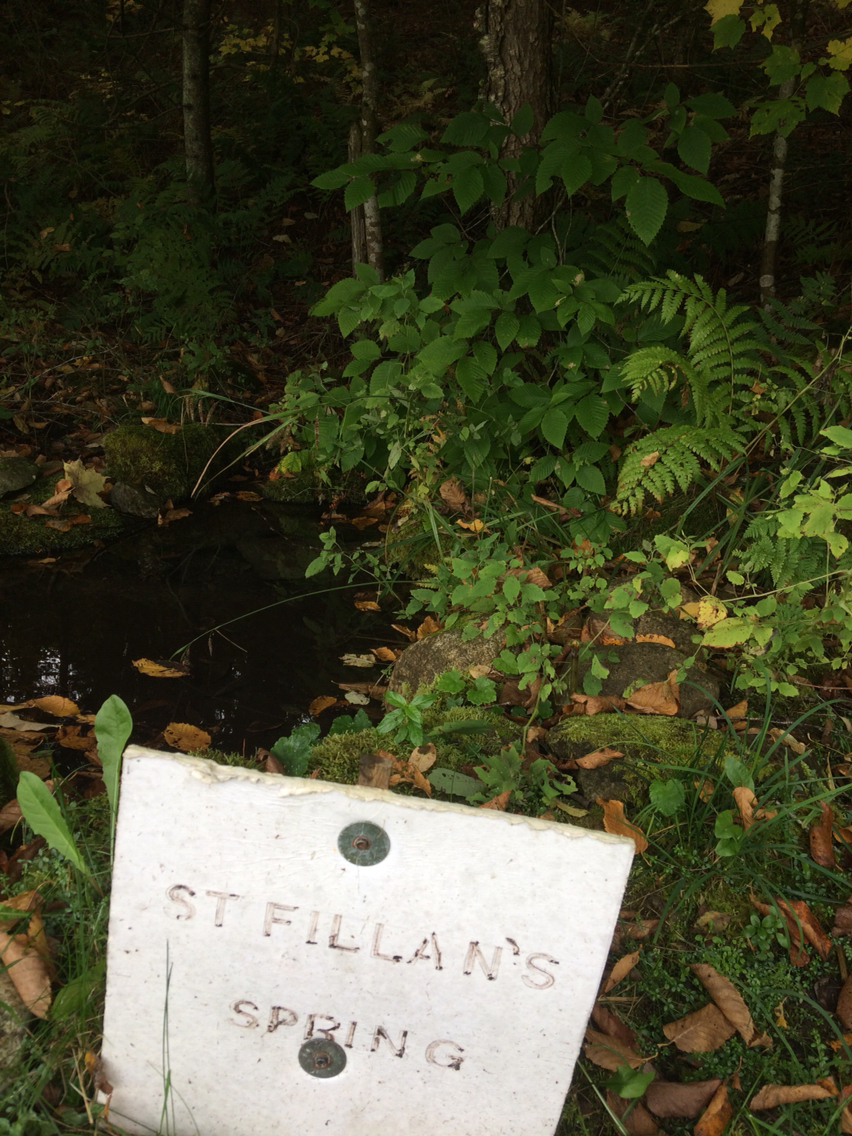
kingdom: Plantae
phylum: Tracheophyta
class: Magnoliopsida
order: Fagales
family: Fagaceae
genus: Fagus
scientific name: Fagus grandifolia
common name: American beech
